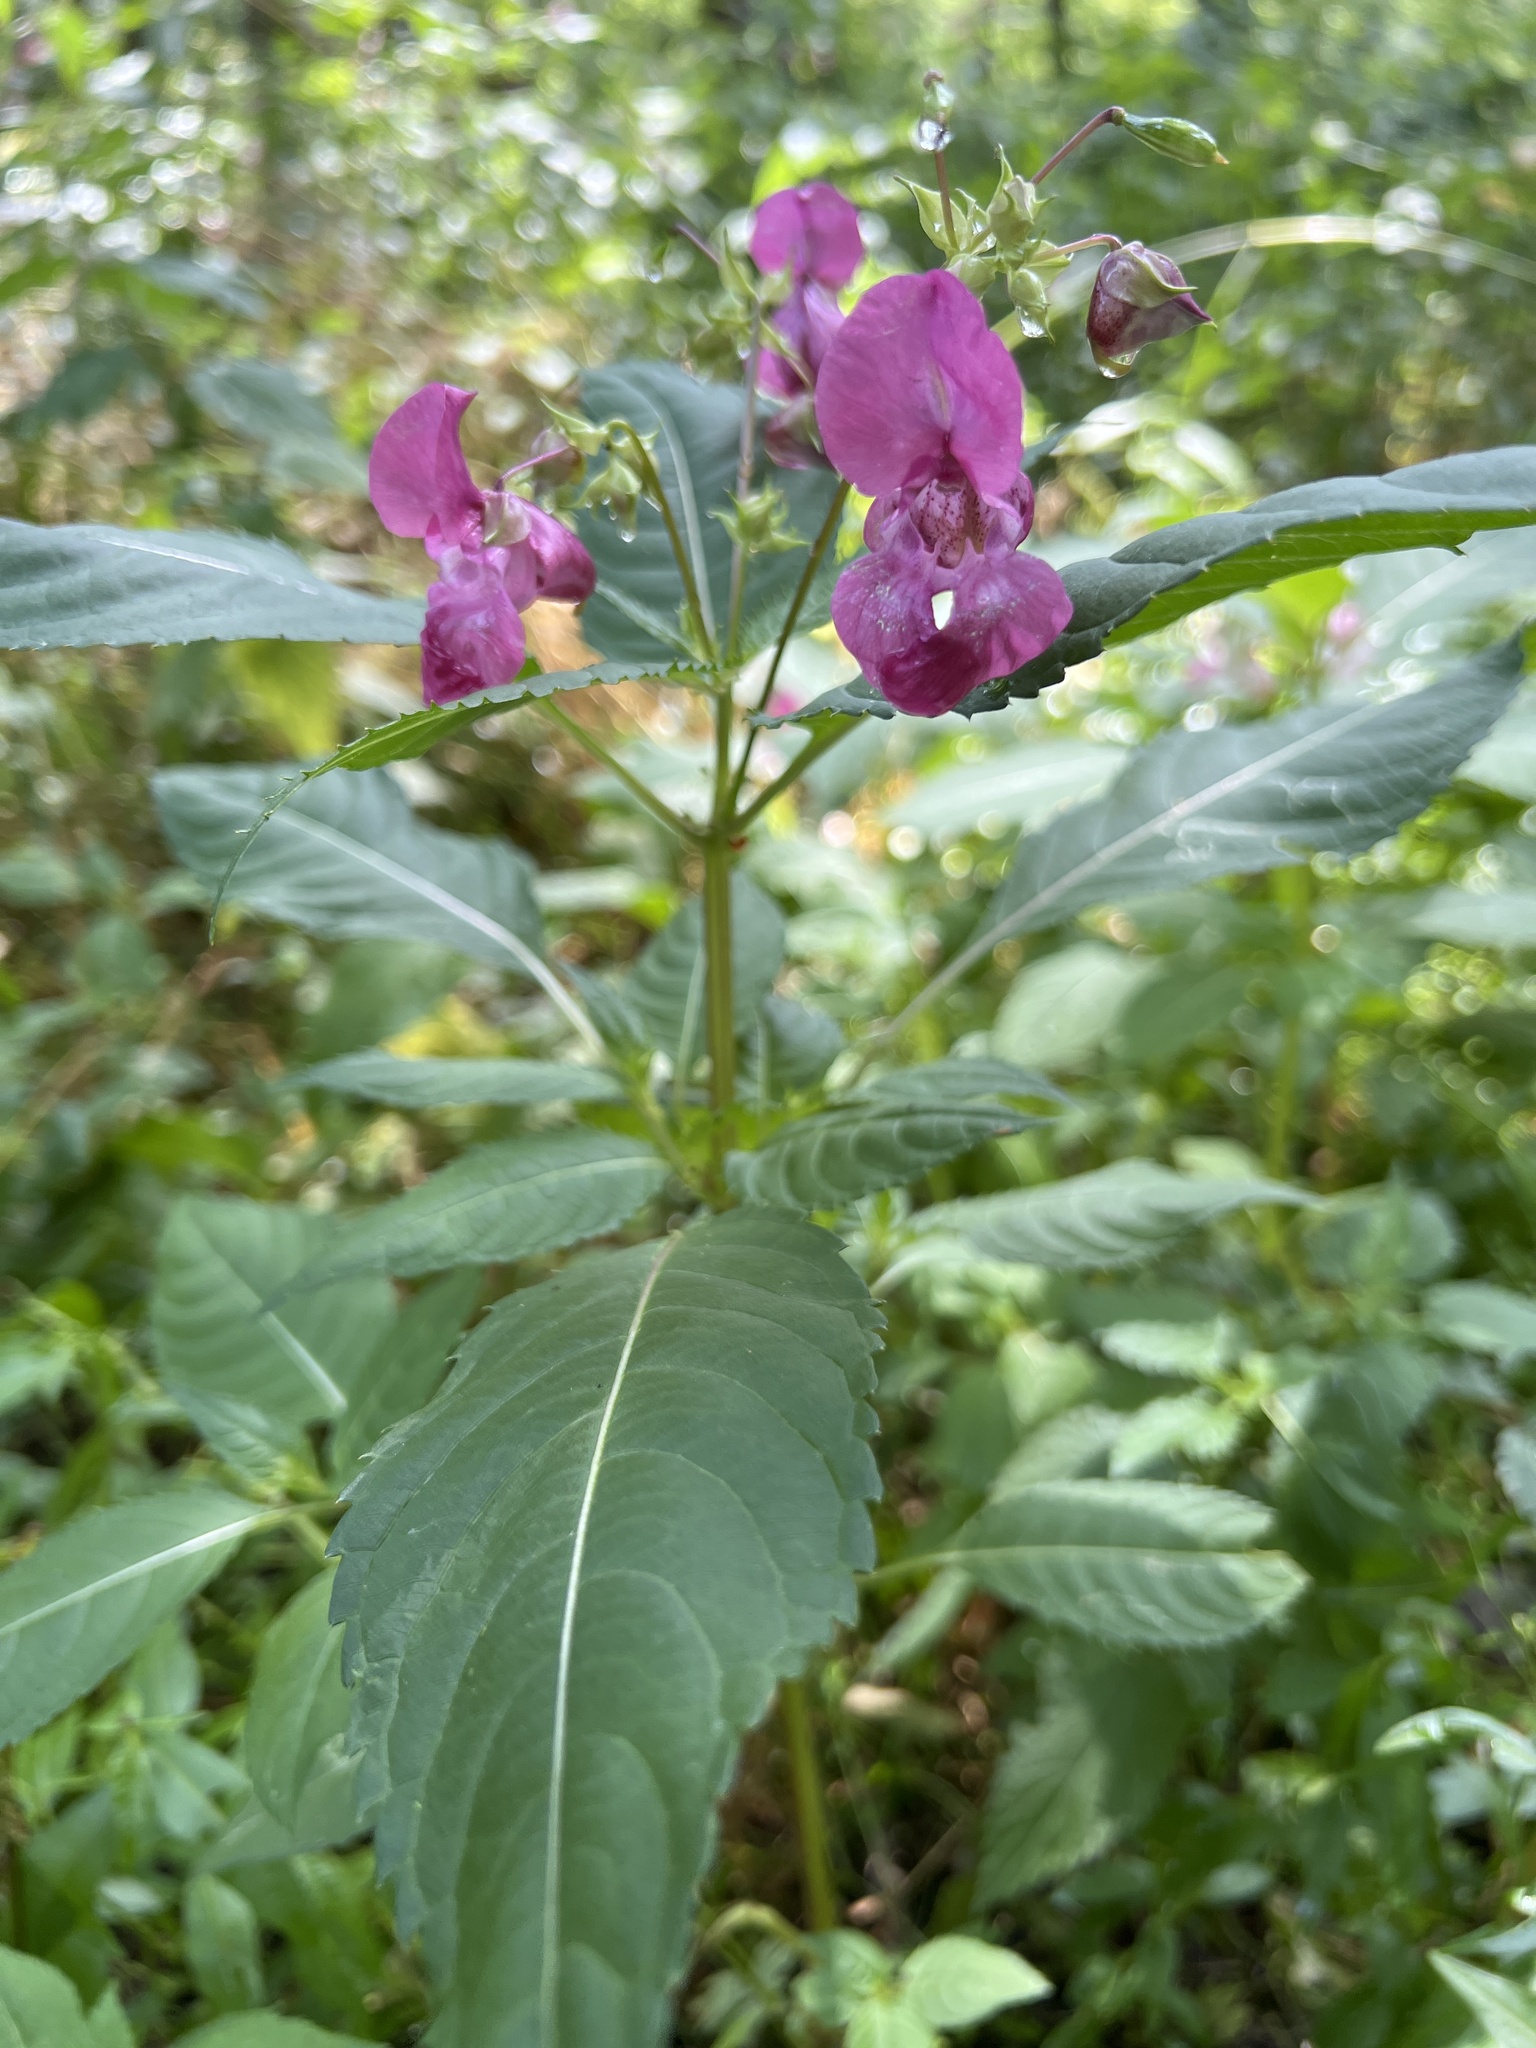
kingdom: Plantae
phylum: Tracheophyta
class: Magnoliopsida
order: Ericales
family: Balsaminaceae
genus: Impatiens
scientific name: Impatiens glandulifera
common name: Himalayan balsam
